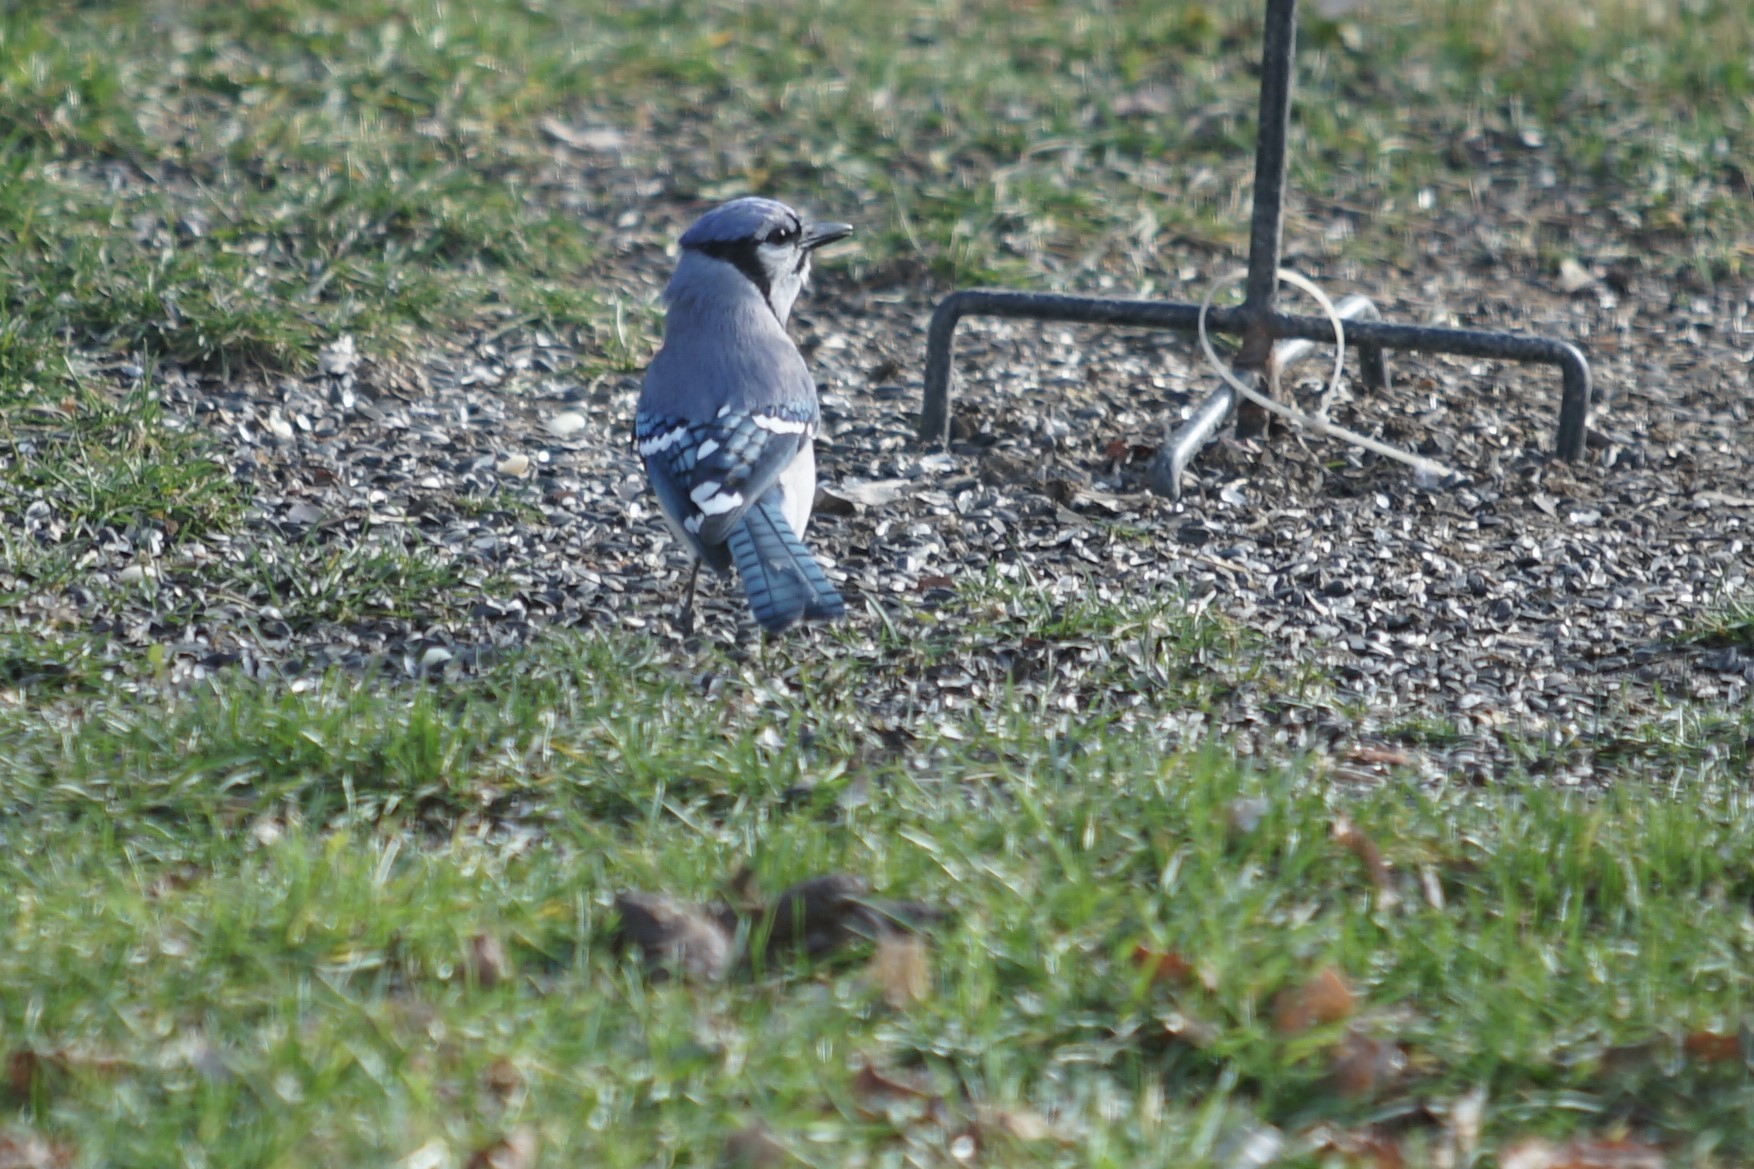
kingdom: Animalia
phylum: Chordata
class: Aves
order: Passeriformes
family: Corvidae
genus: Cyanocitta
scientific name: Cyanocitta cristata
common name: Blue jay
